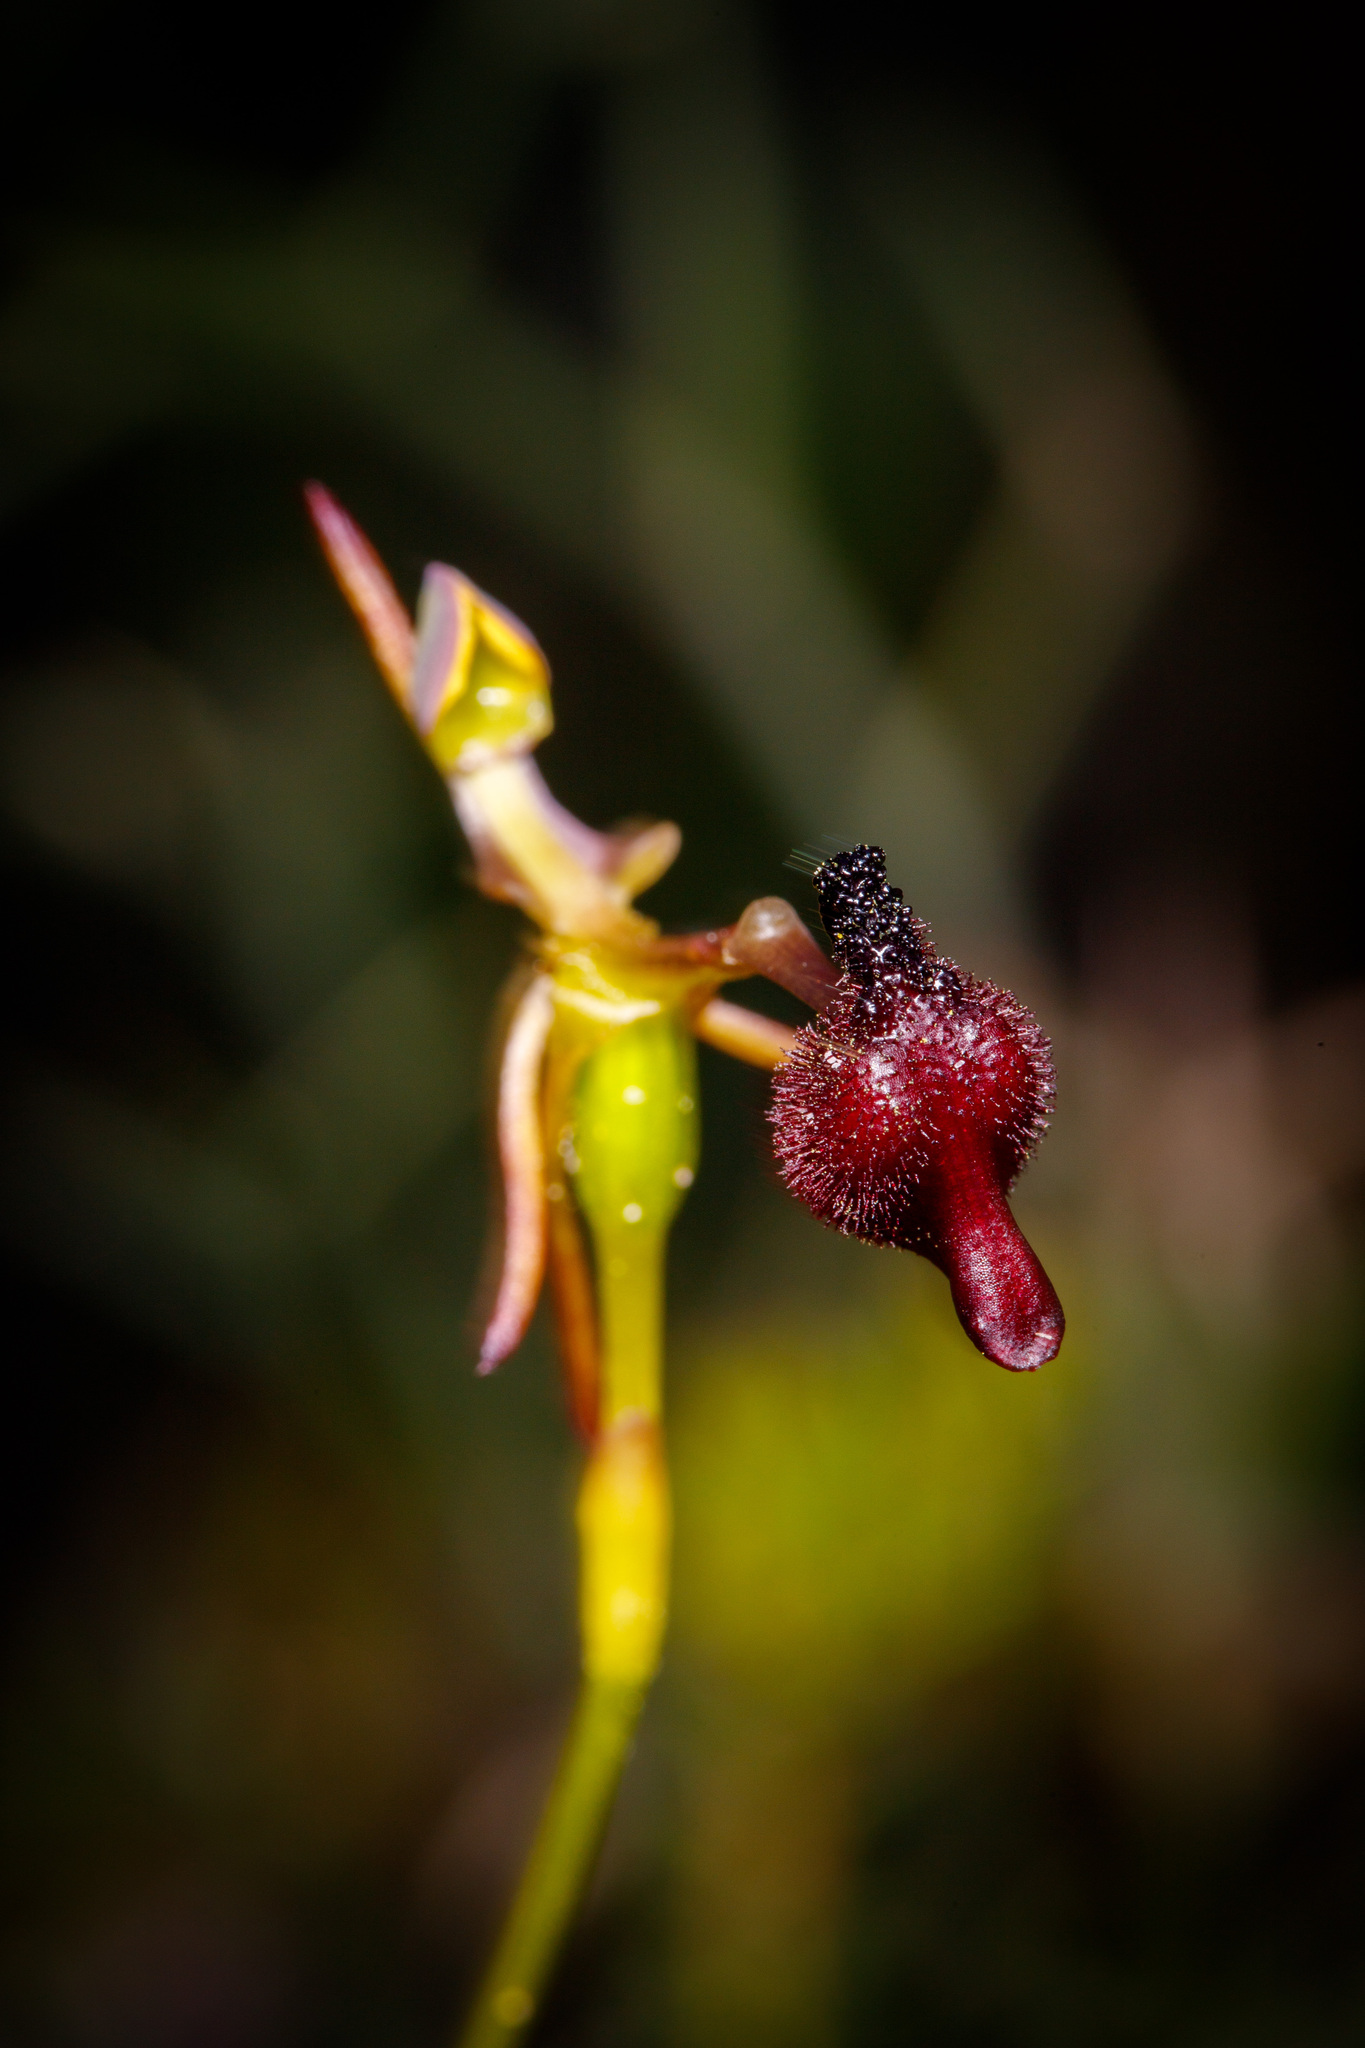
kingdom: Plantae
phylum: Tracheophyta
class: Liliopsida
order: Asparagales
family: Orchidaceae
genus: Drakaea
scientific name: Drakaea glyptodon
